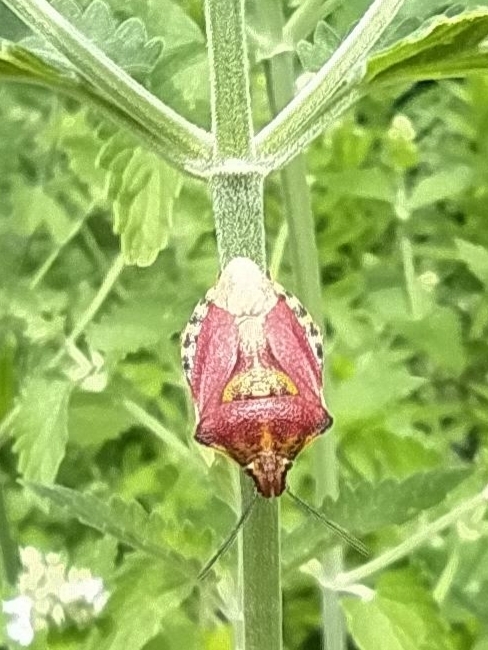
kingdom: Animalia
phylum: Arthropoda
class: Insecta
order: Hemiptera
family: Pentatomidae
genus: Carpocoris
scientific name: Carpocoris purpureipennis
